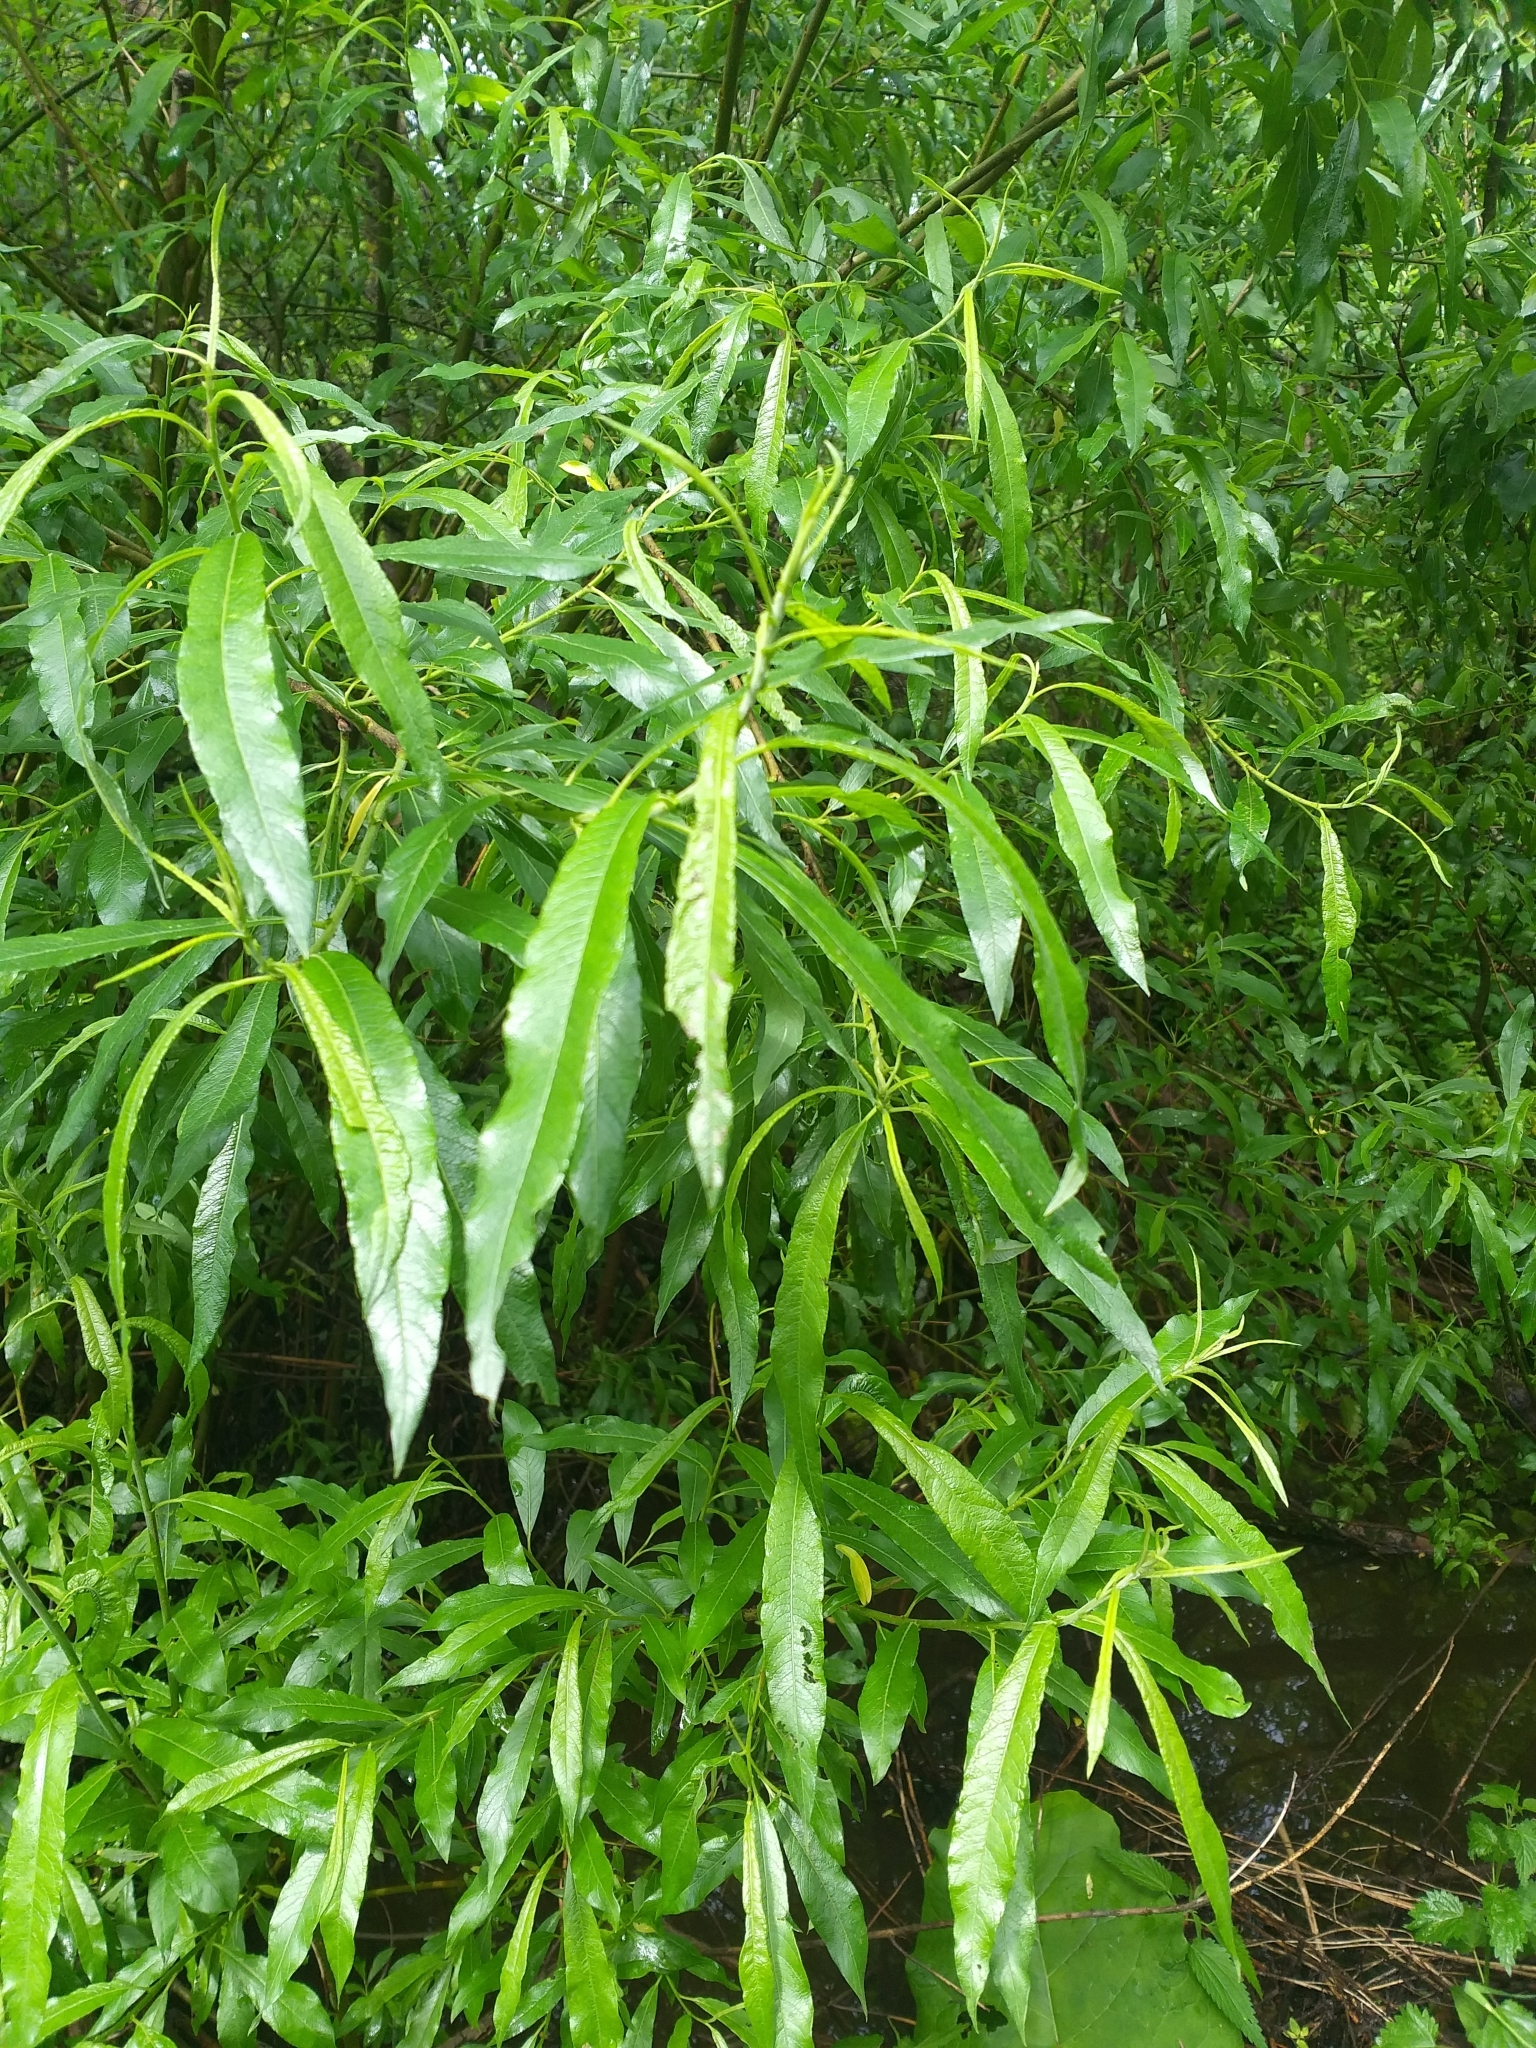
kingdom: Plantae
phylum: Tracheophyta
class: Magnoliopsida
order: Malpighiales
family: Salicaceae
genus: Salix
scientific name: Salix gmelinii
